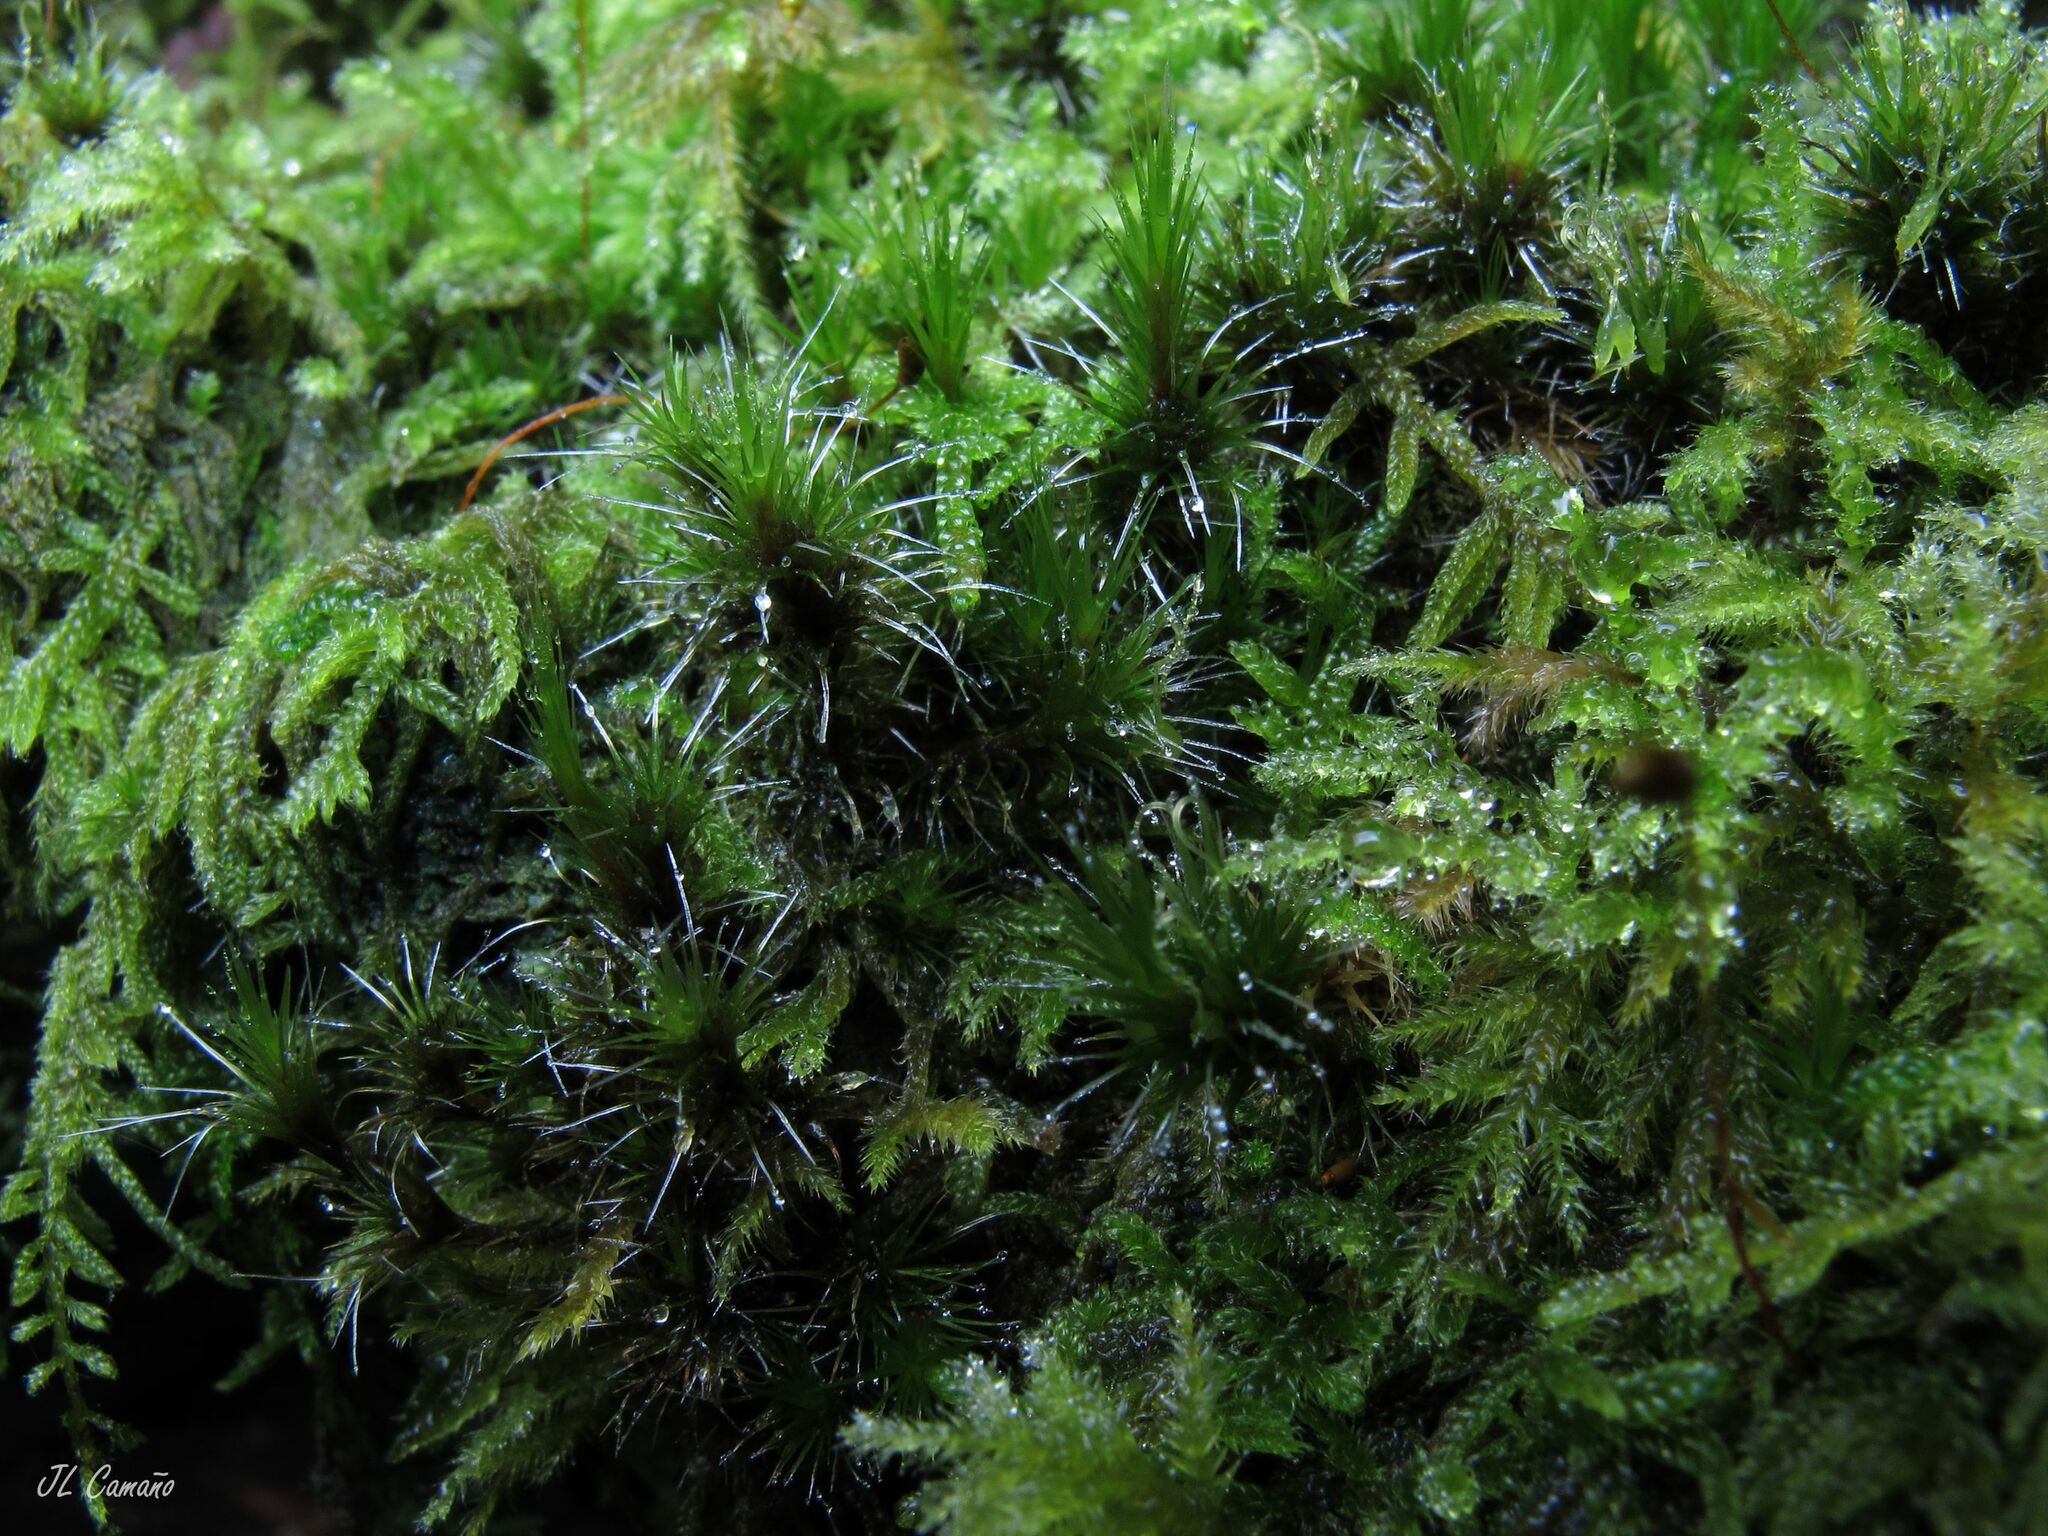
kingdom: Plantae
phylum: Bryophyta
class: Bryopsida
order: Dicranales
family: Leucobryaceae
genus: Campylopus
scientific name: Campylopus introflexus
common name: Heath star moss
